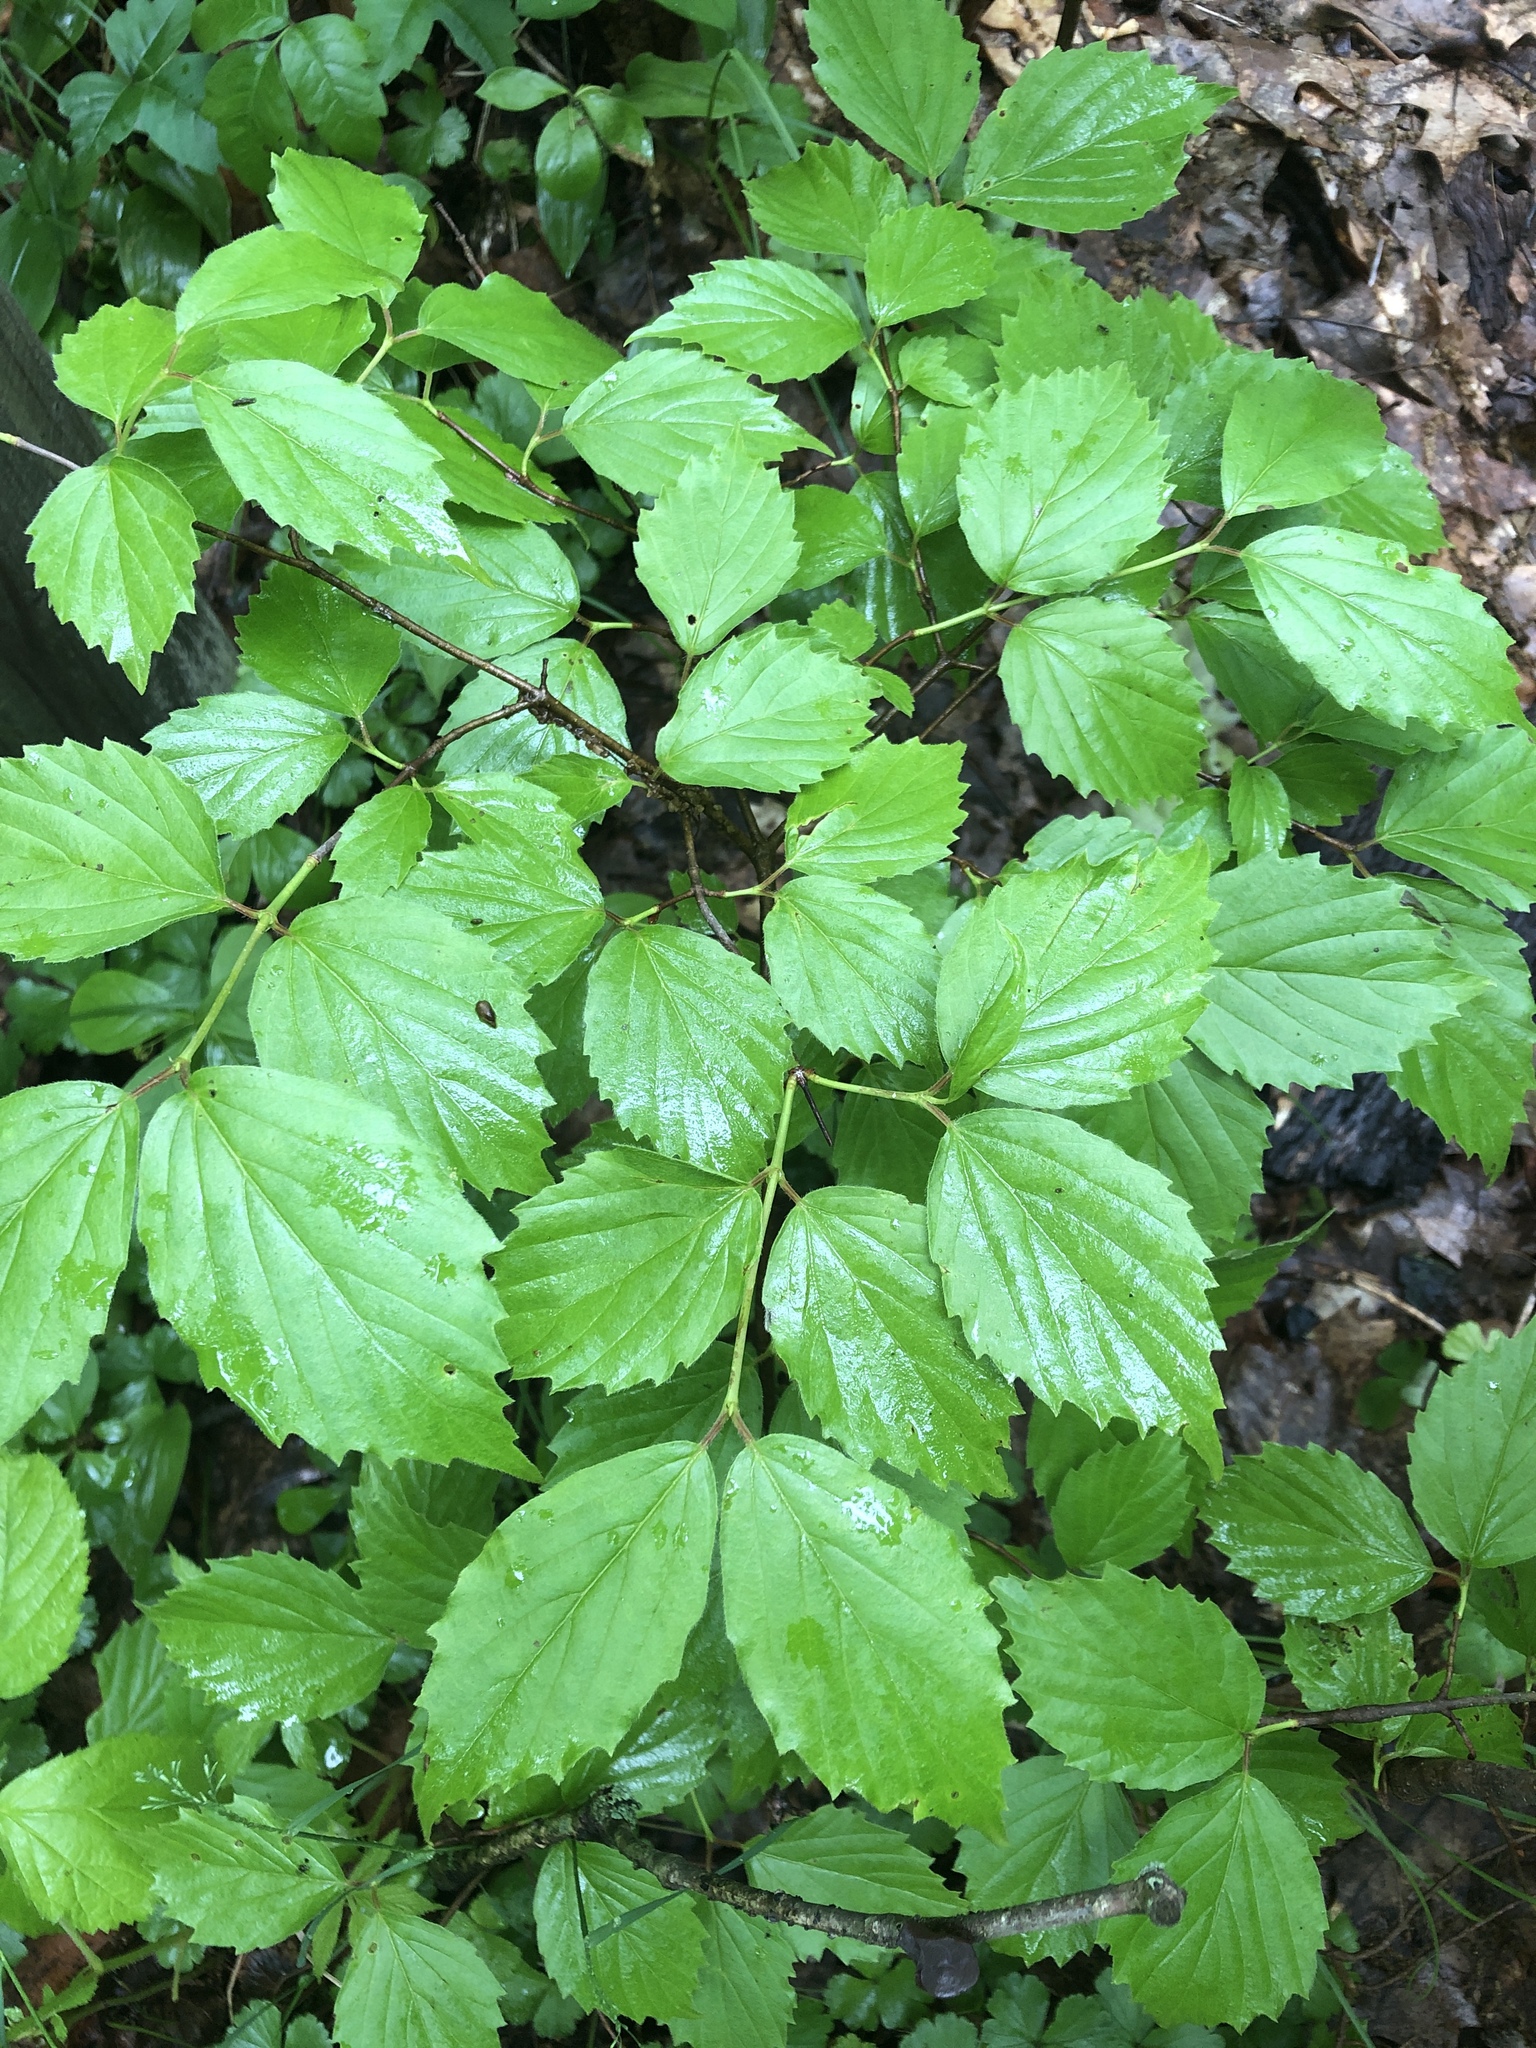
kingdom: Plantae
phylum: Tracheophyta
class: Magnoliopsida
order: Dipsacales
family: Viburnaceae
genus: Viburnum
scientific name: Viburnum rafinesqueanum
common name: Downy arrow-wood
